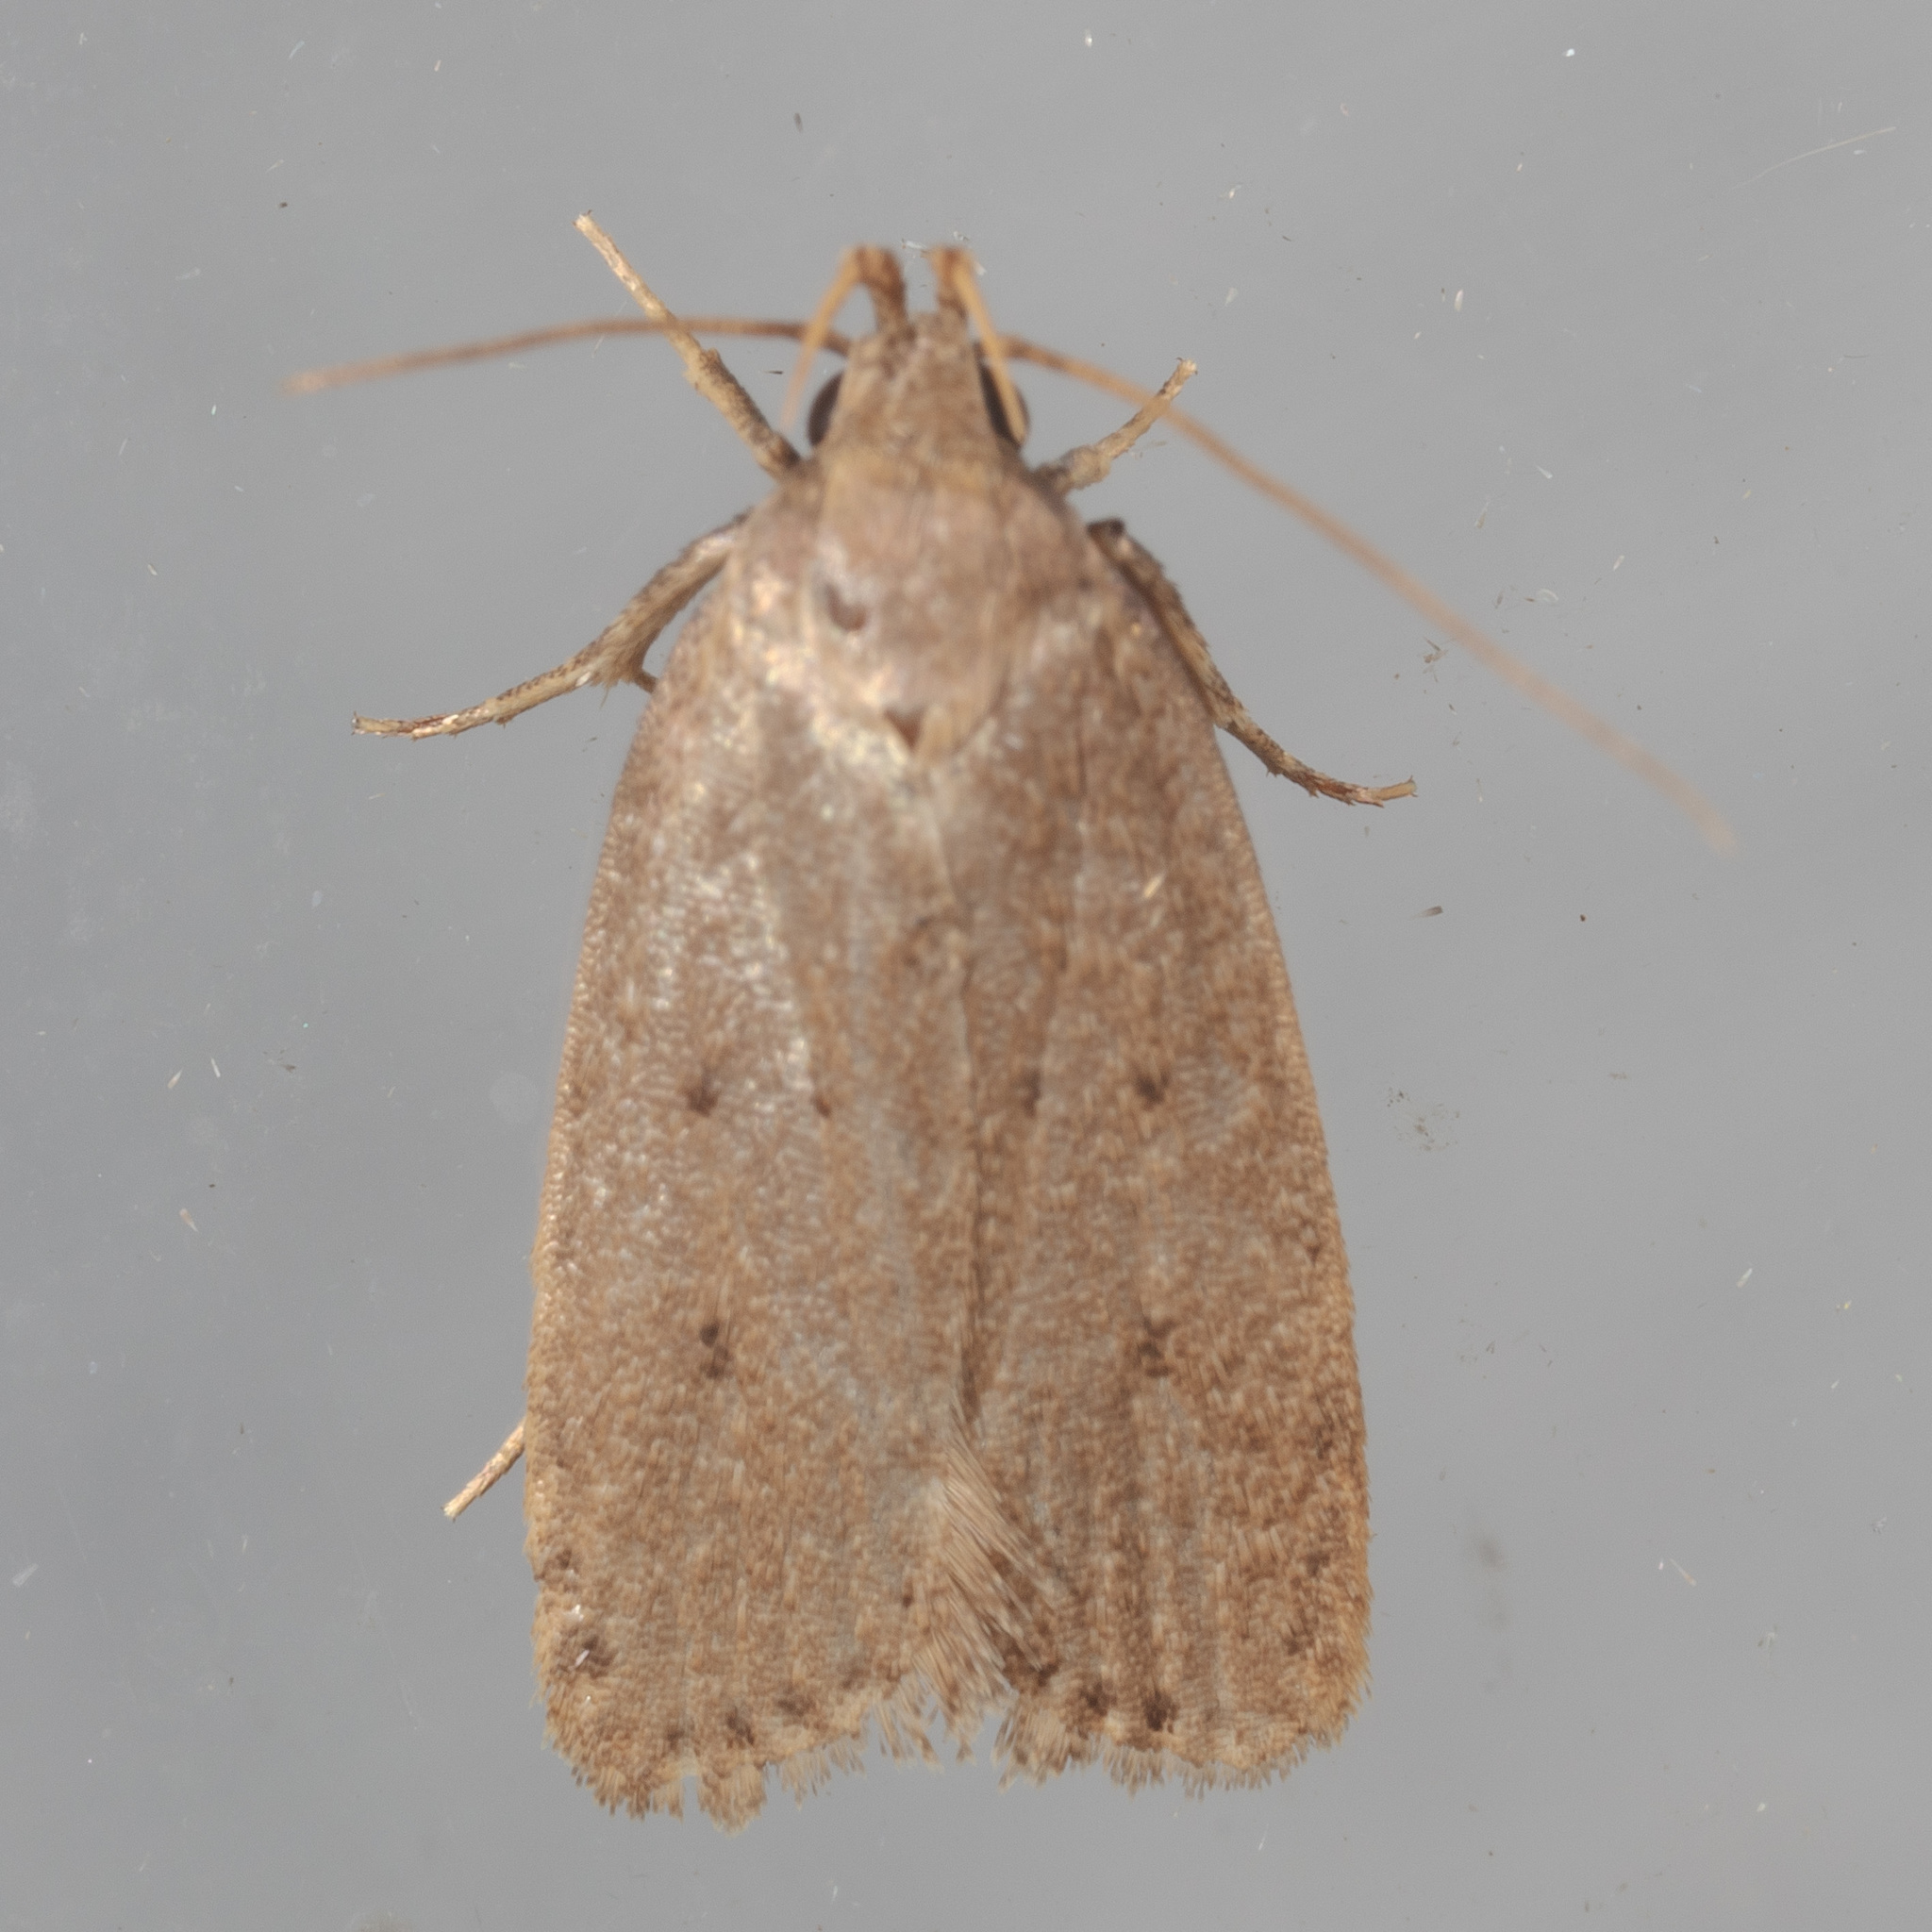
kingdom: Animalia
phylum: Arthropoda
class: Insecta
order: Lepidoptera
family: Autostichidae
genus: Autosticha
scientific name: Autosticha kyotensis
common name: Kyoto moth
